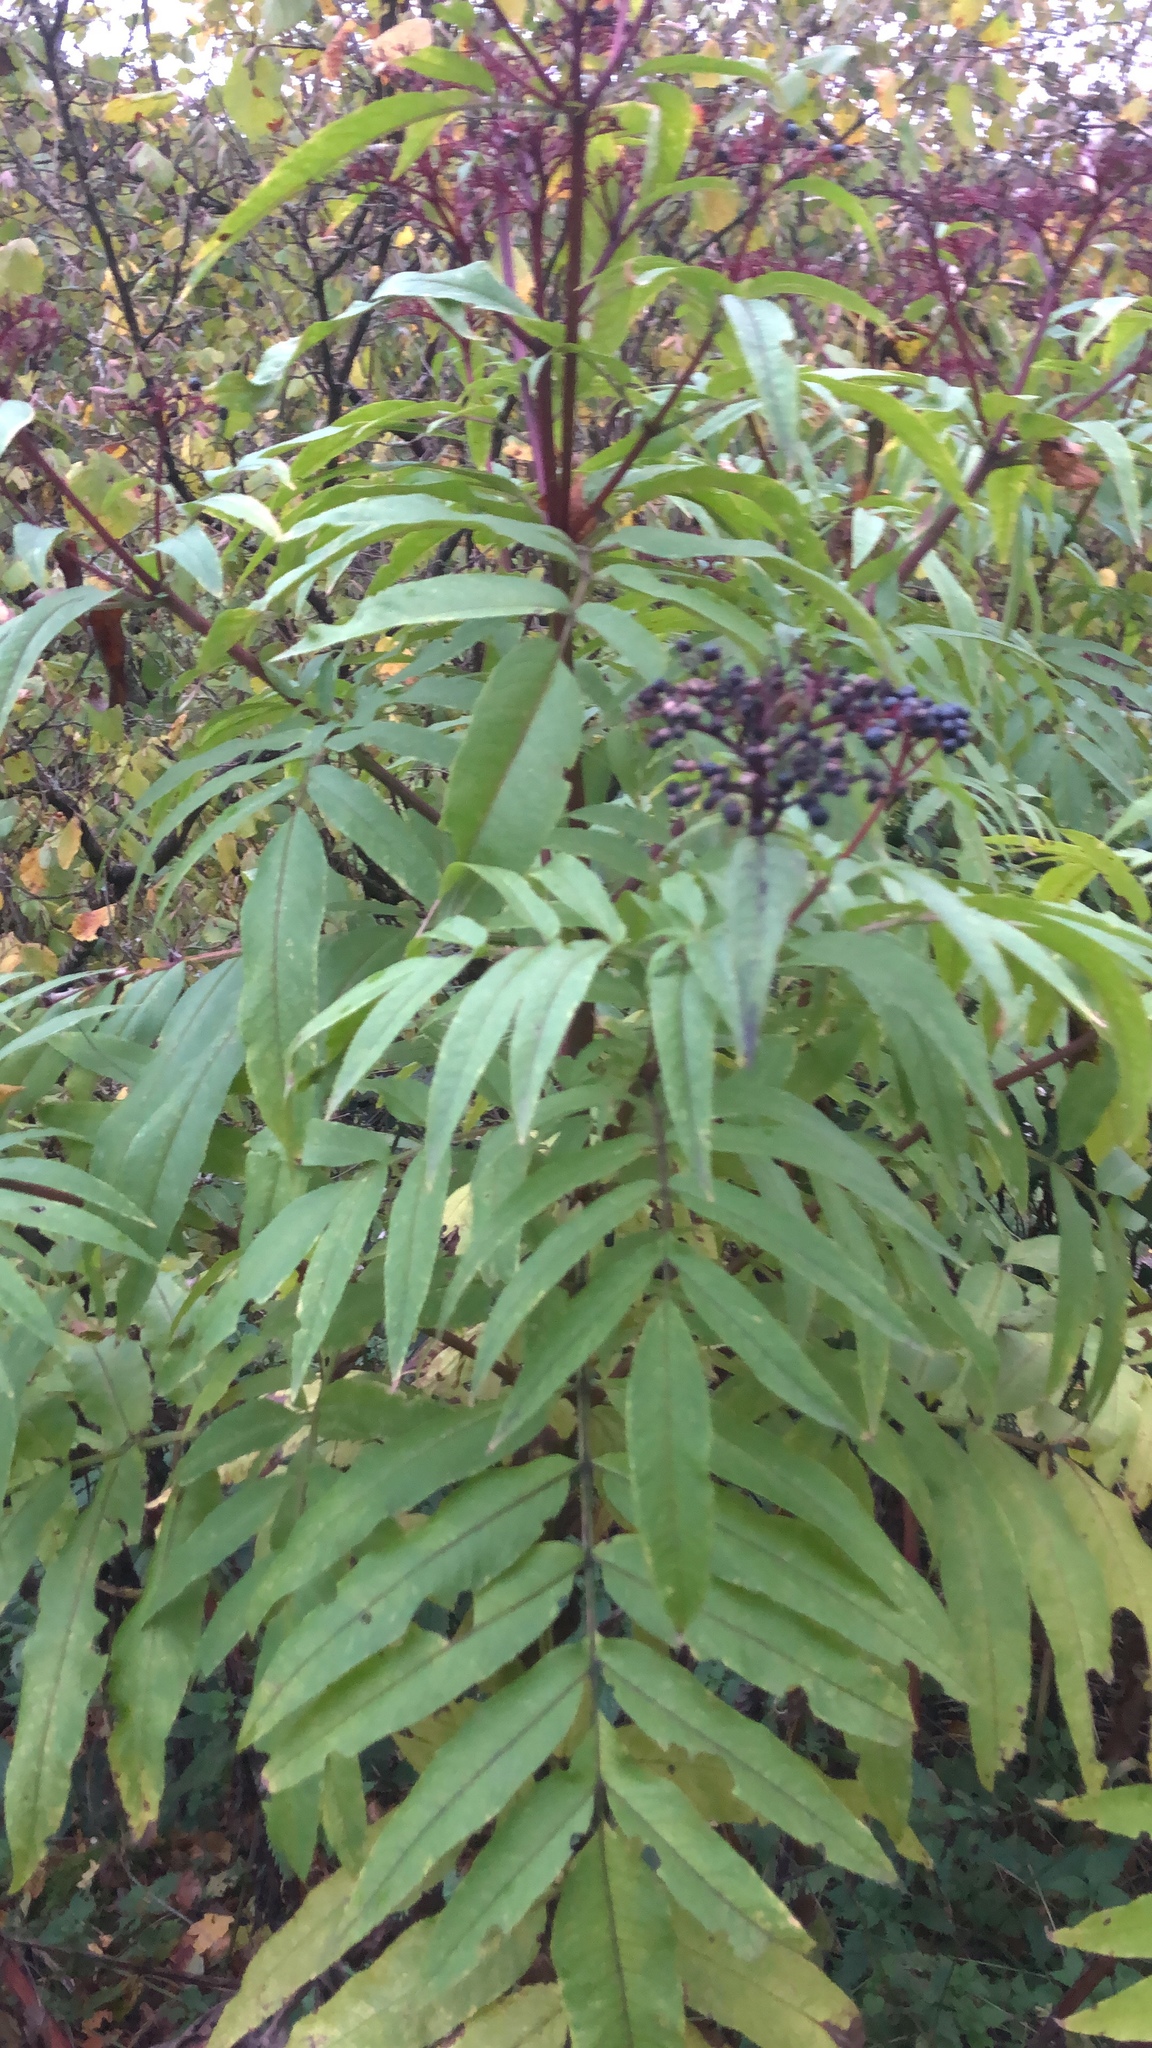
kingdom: Plantae
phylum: Tracheophyta
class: Magnoliopsida
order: Dipsacales
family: Viburnaceae
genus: Sambucus
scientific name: Sambucus ebulus
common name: Dwarf elder
